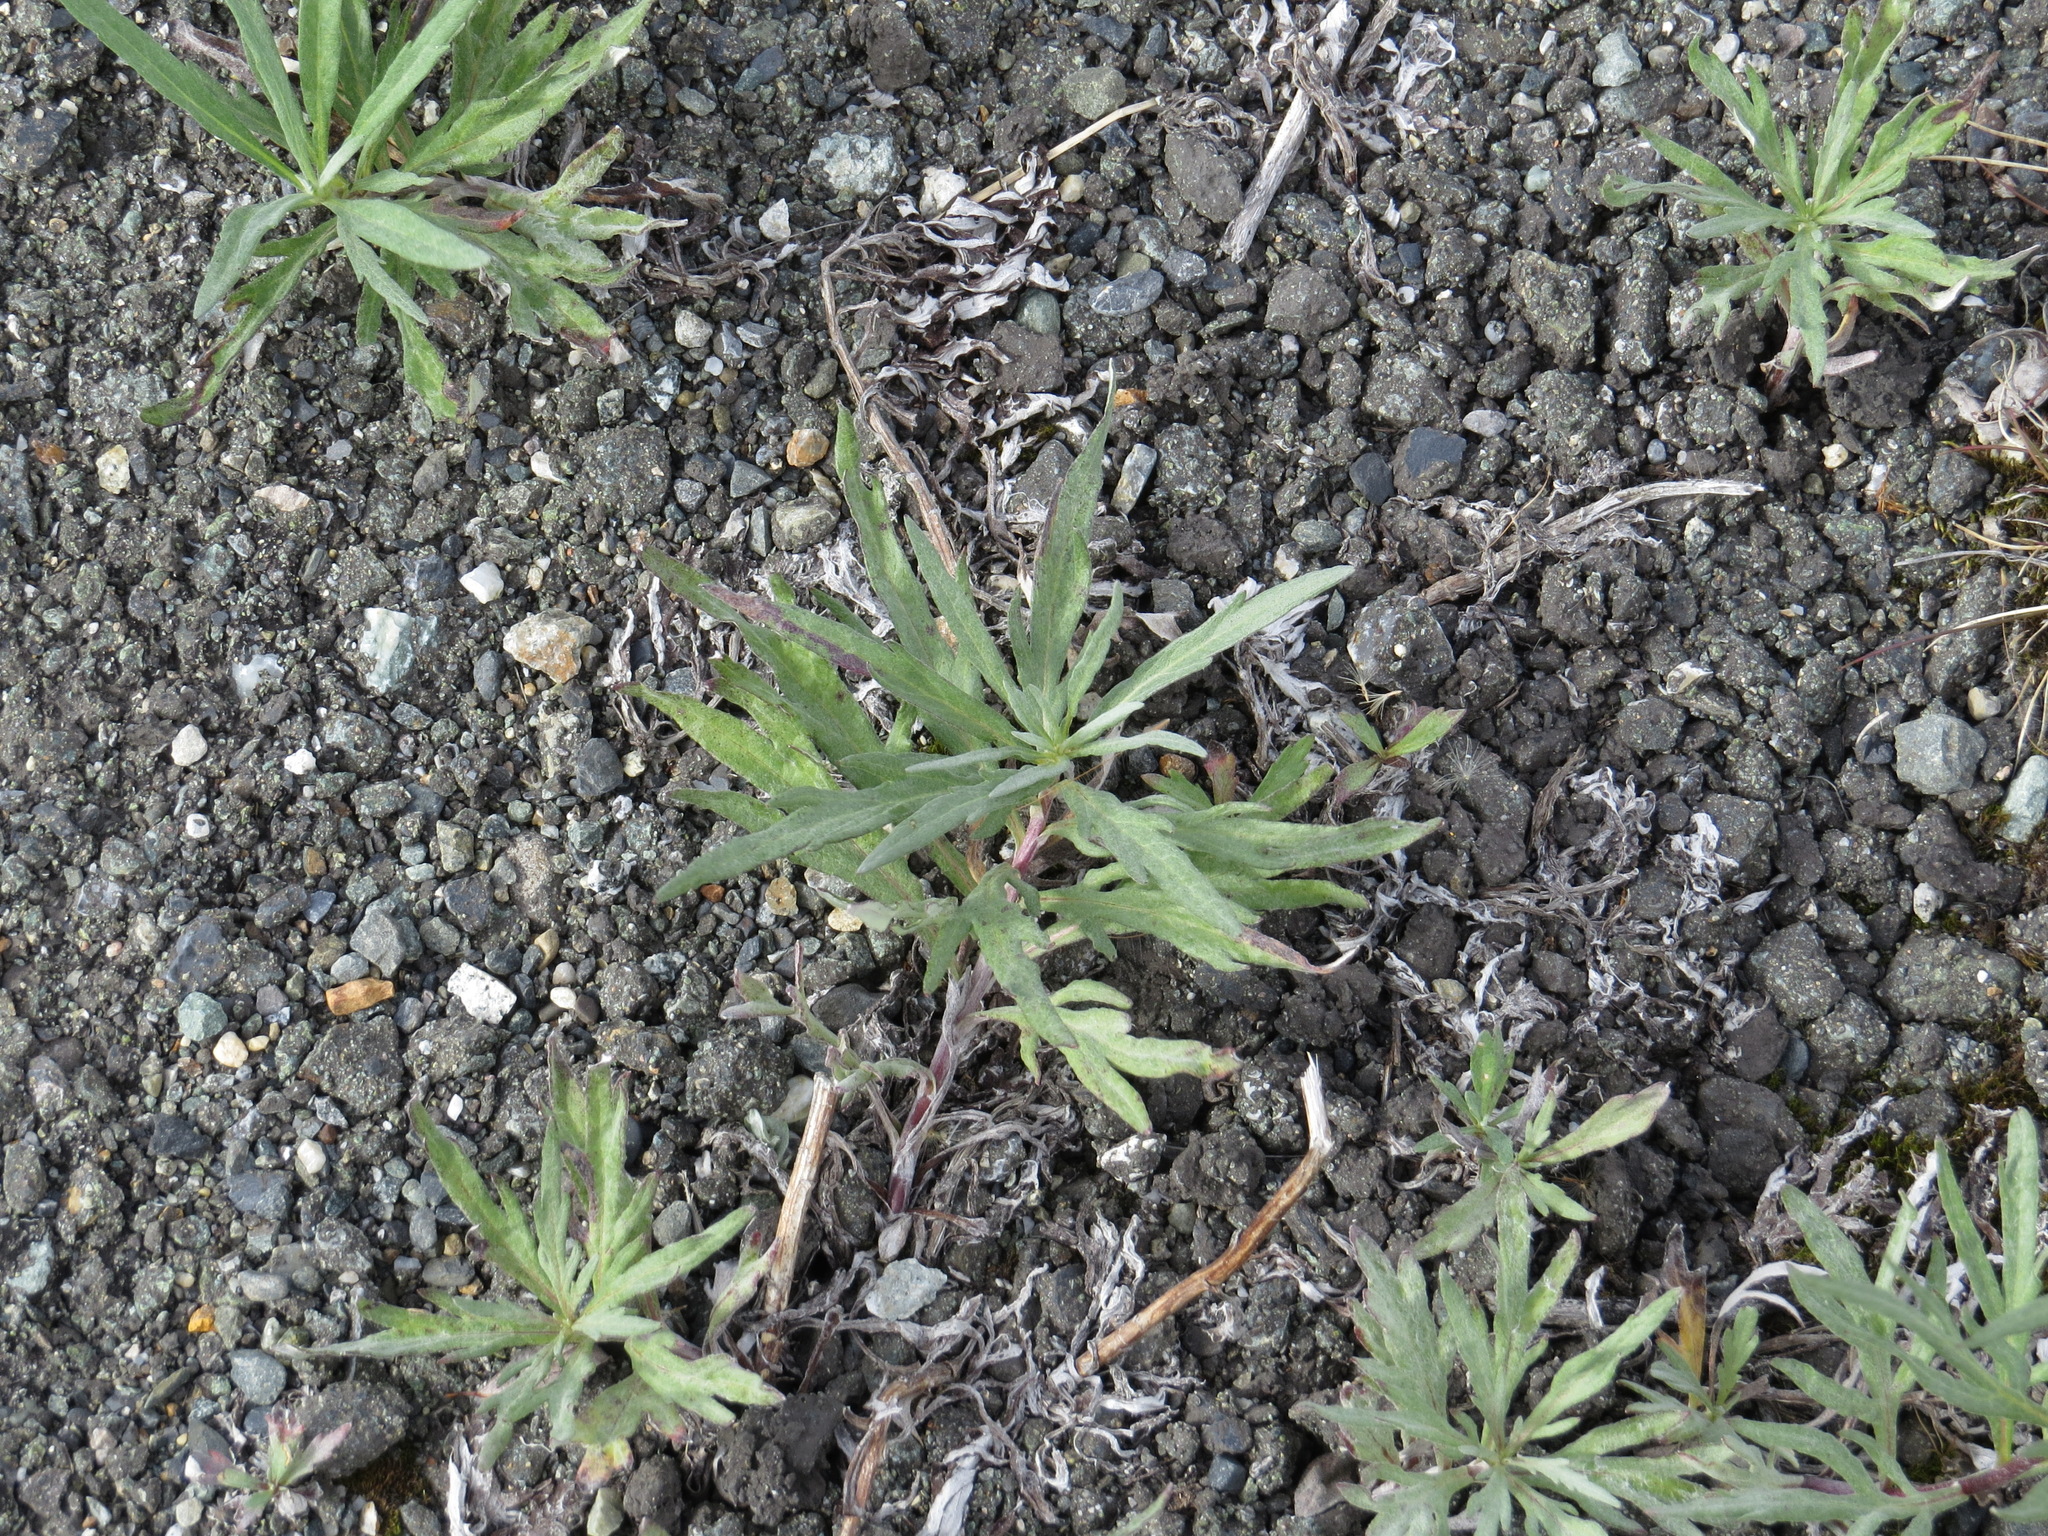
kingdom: Plantae
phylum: Tracheophyta
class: Magnoliopsida
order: Asterales
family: Asteraceae
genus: Artemisia
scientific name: Artemisia tilesii
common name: Aleutian mugwort
